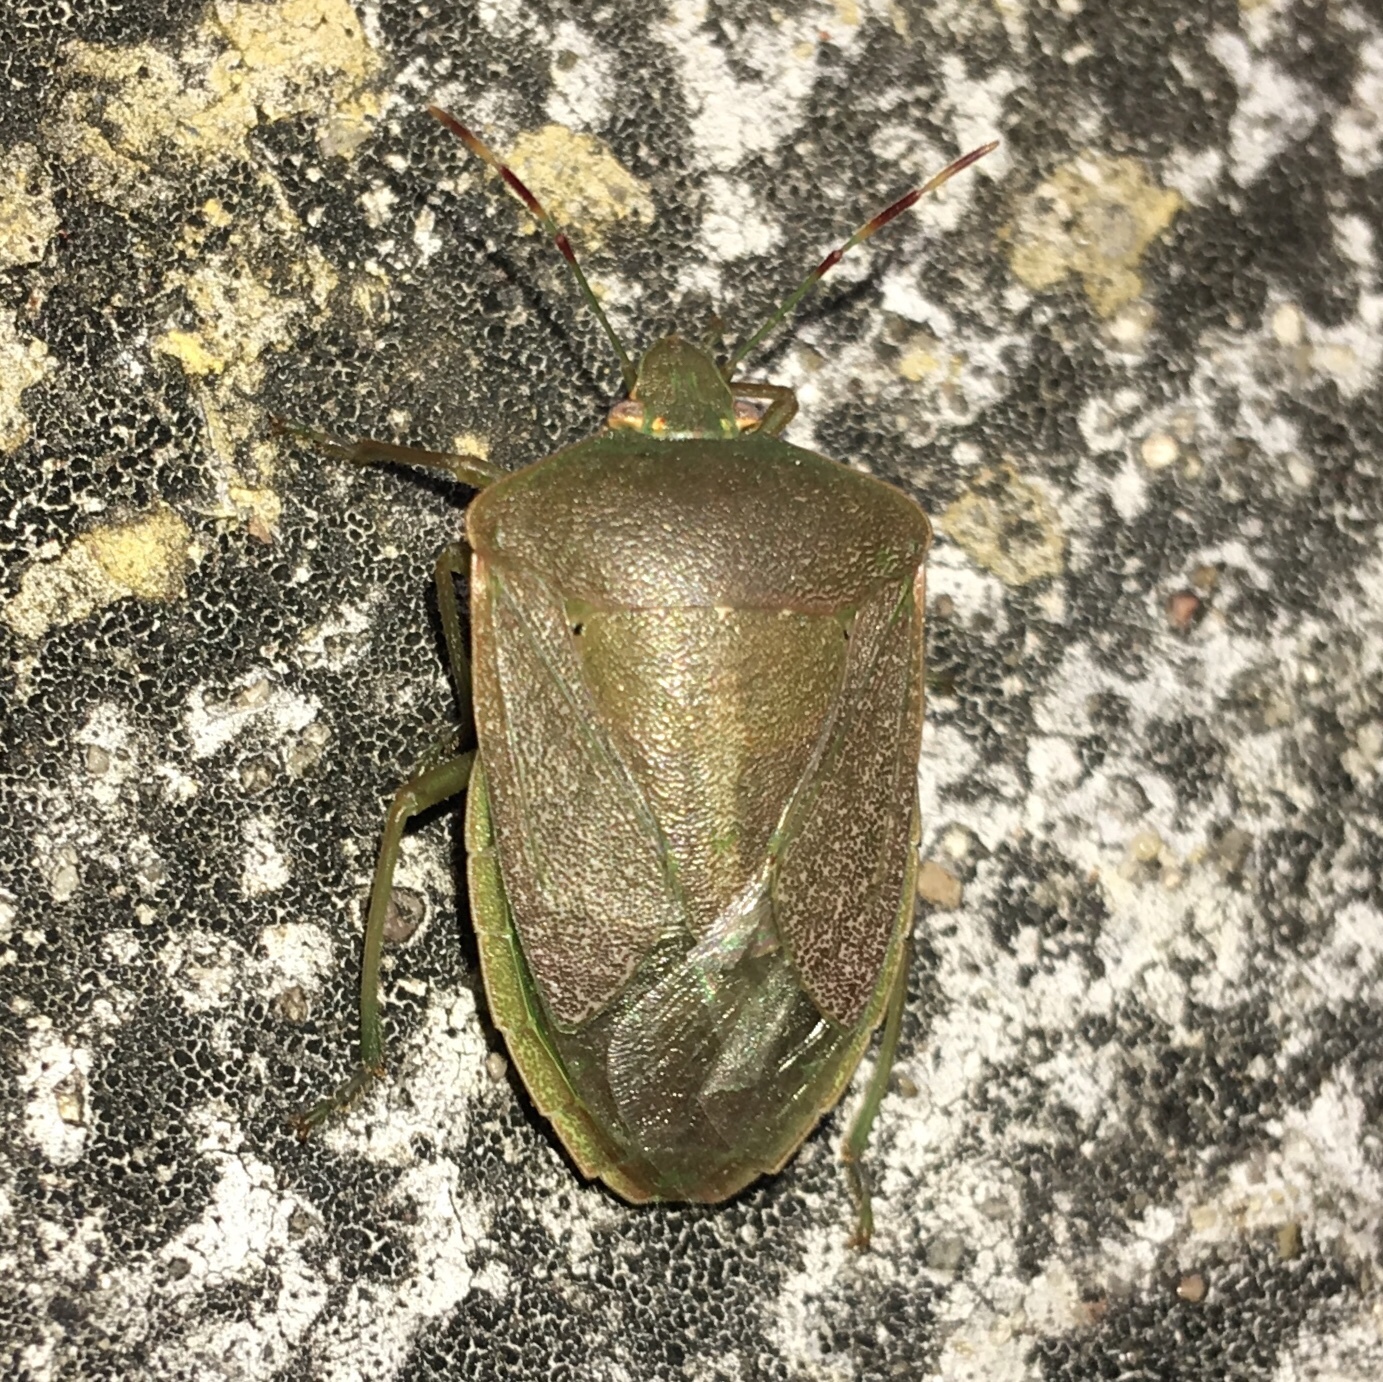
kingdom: Animalia
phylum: Arthropoda
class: Insecta
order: Hemiptera
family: Pentatomidae
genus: Nezara
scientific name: Nezara viridula
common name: Southern green stink bug
